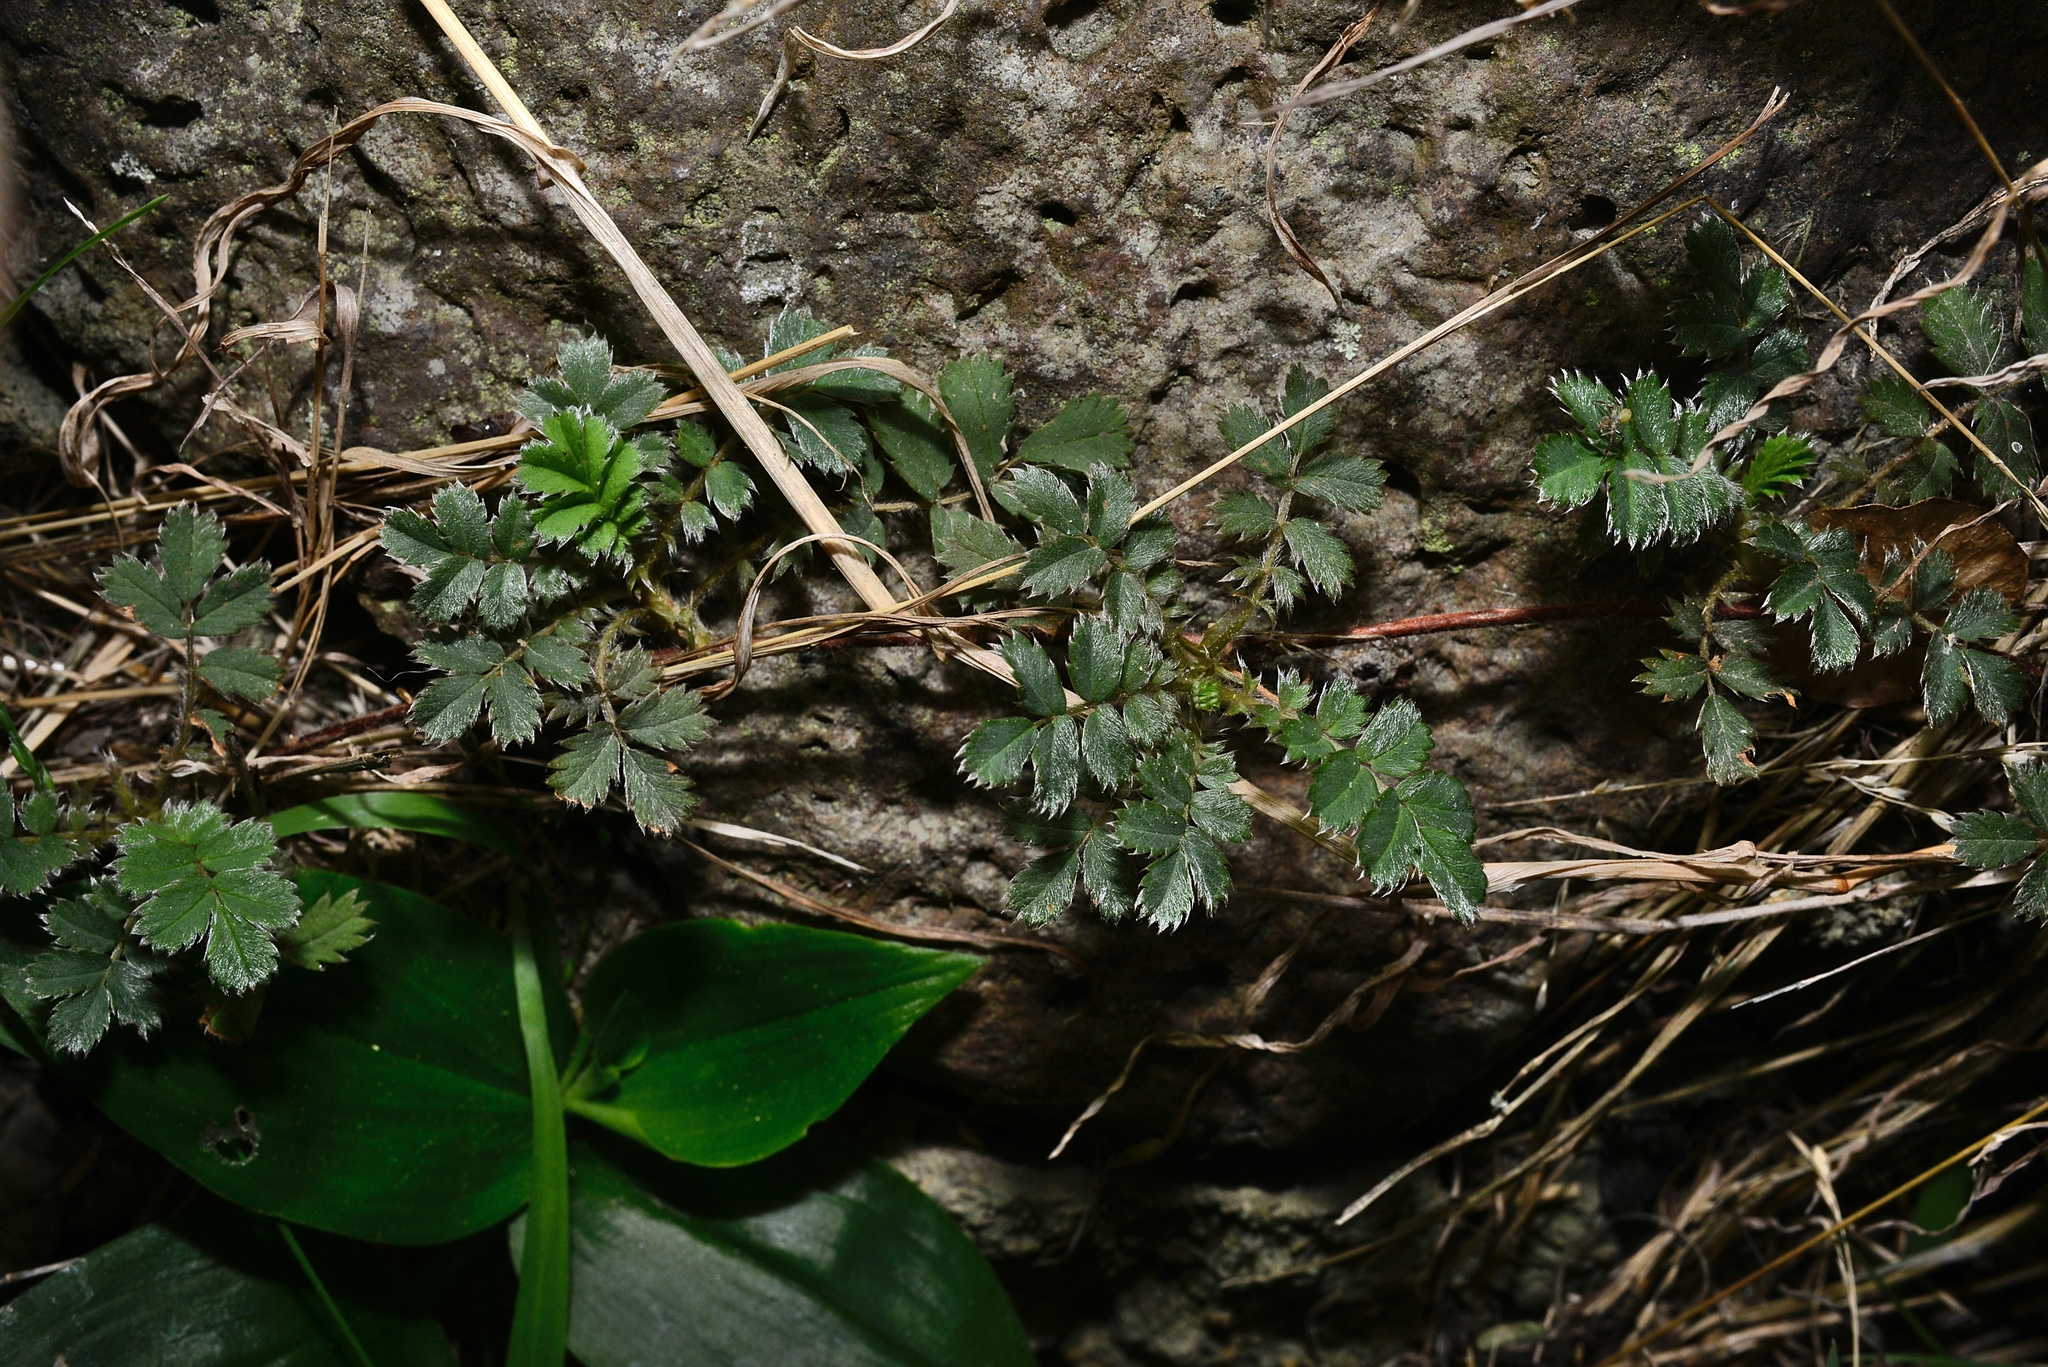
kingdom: Plantae
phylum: Tracheophyta
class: Magnoliopsida
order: Rosales
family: Rosaceae
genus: Acaena
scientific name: Acaena anserinifolia
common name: Bronze pirri-pirri-bur
